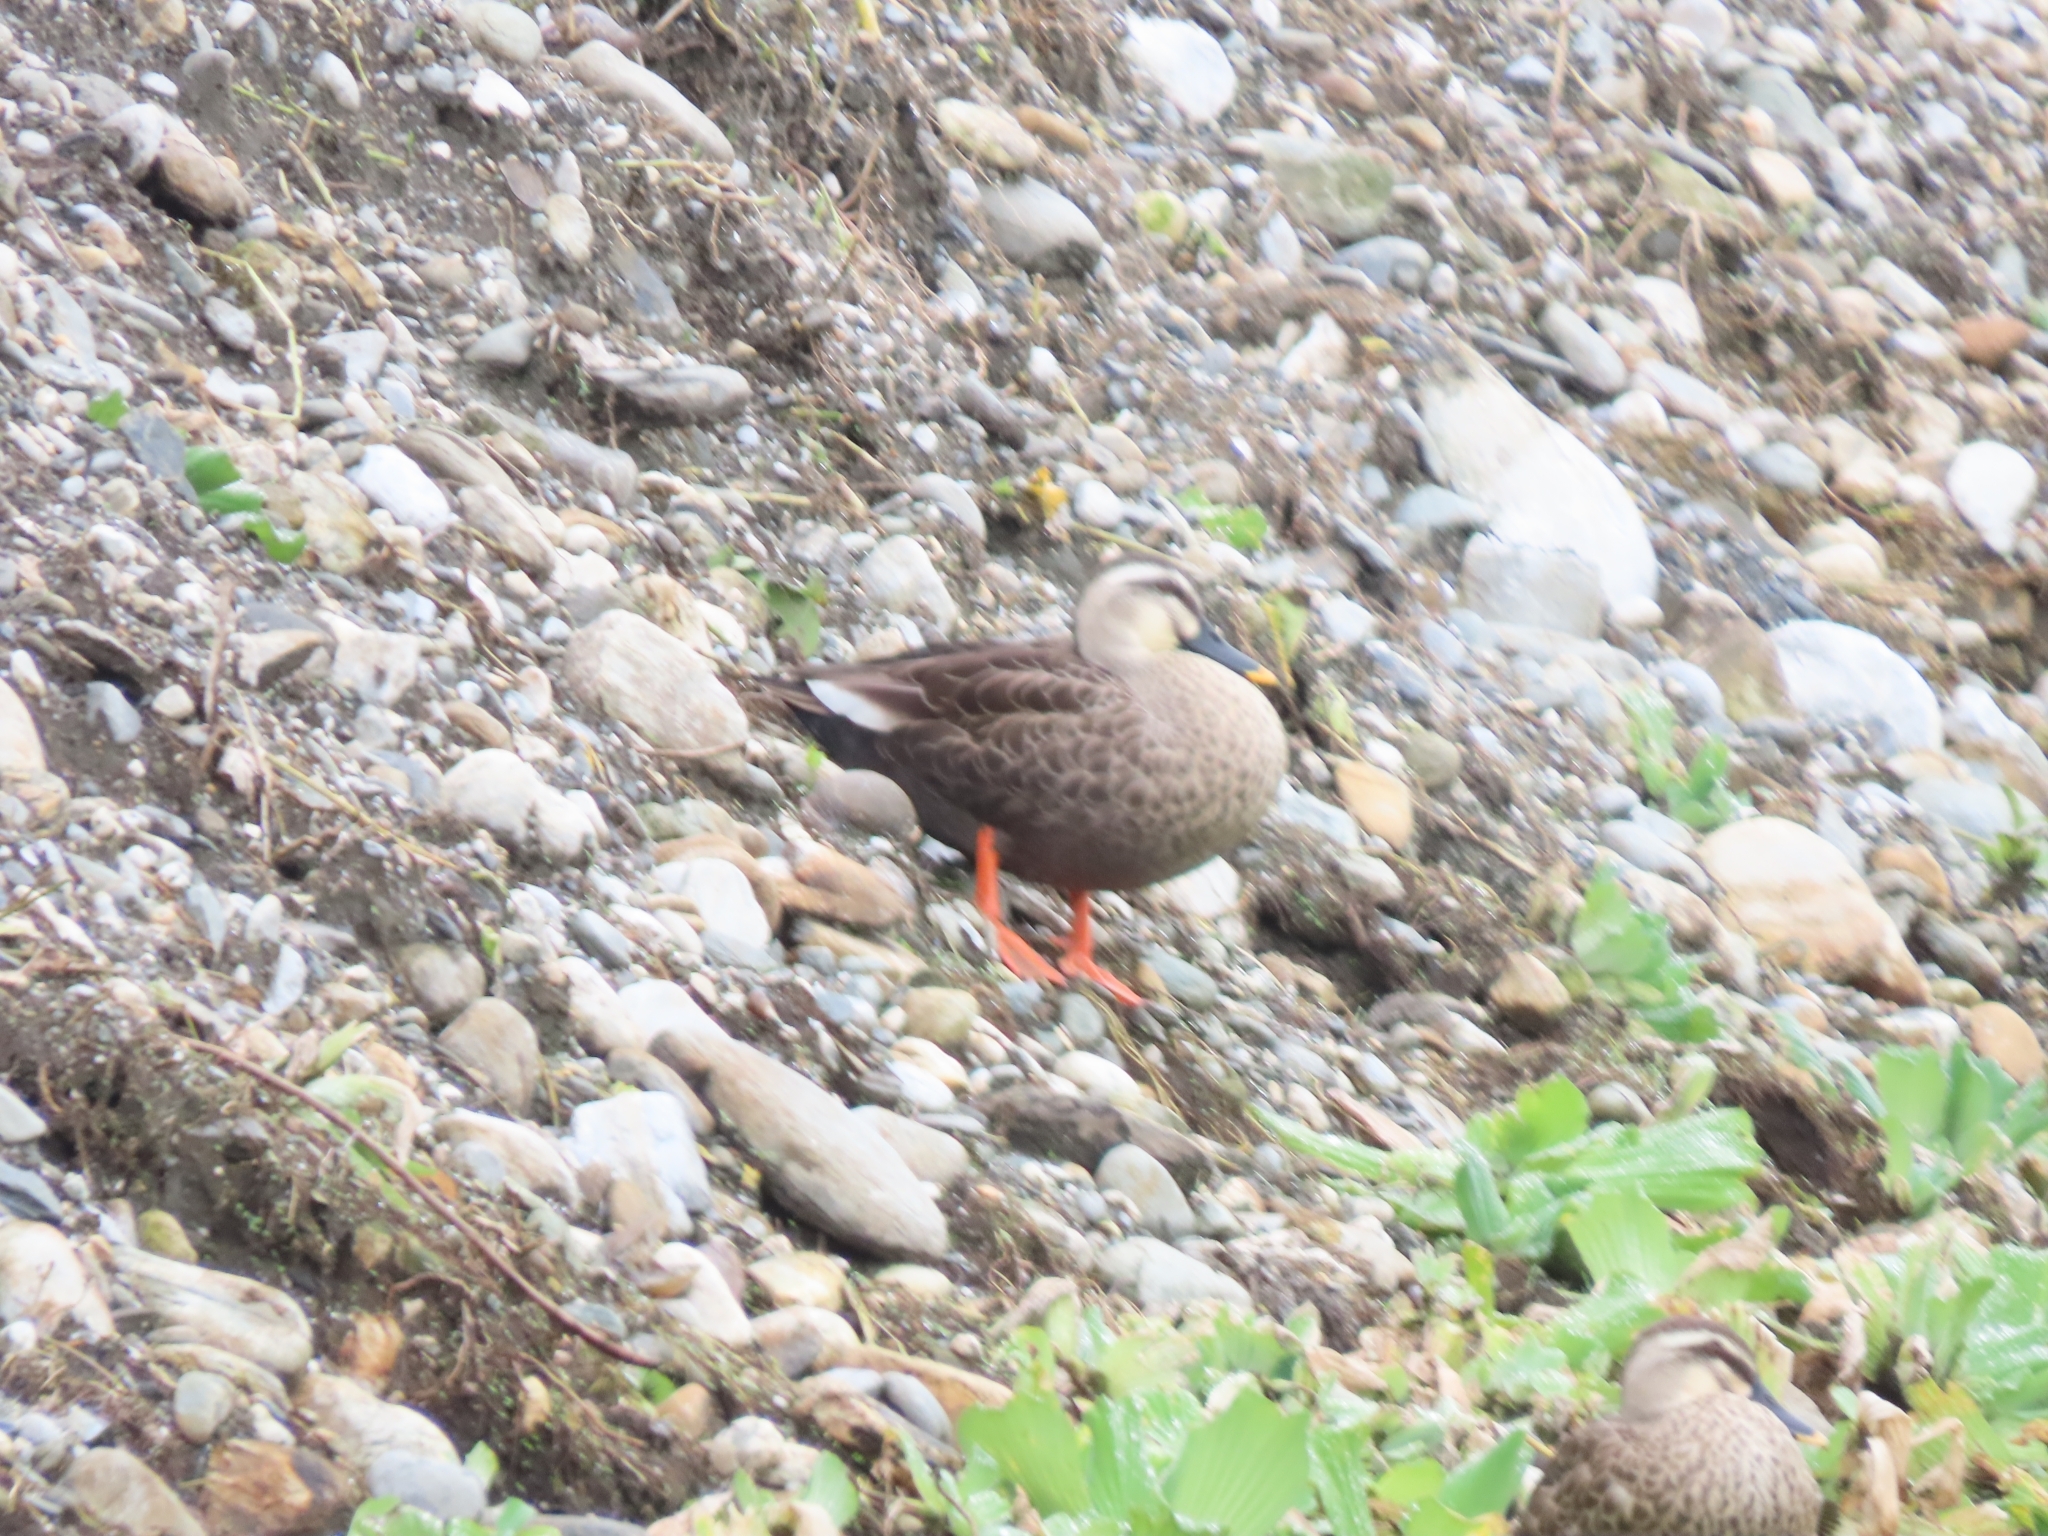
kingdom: Animalia
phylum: Chordata
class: Aves
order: Anseriformes
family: Anatidae
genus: Anas
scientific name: Anas zonorhyncha
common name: Eastern spot-billed duck
